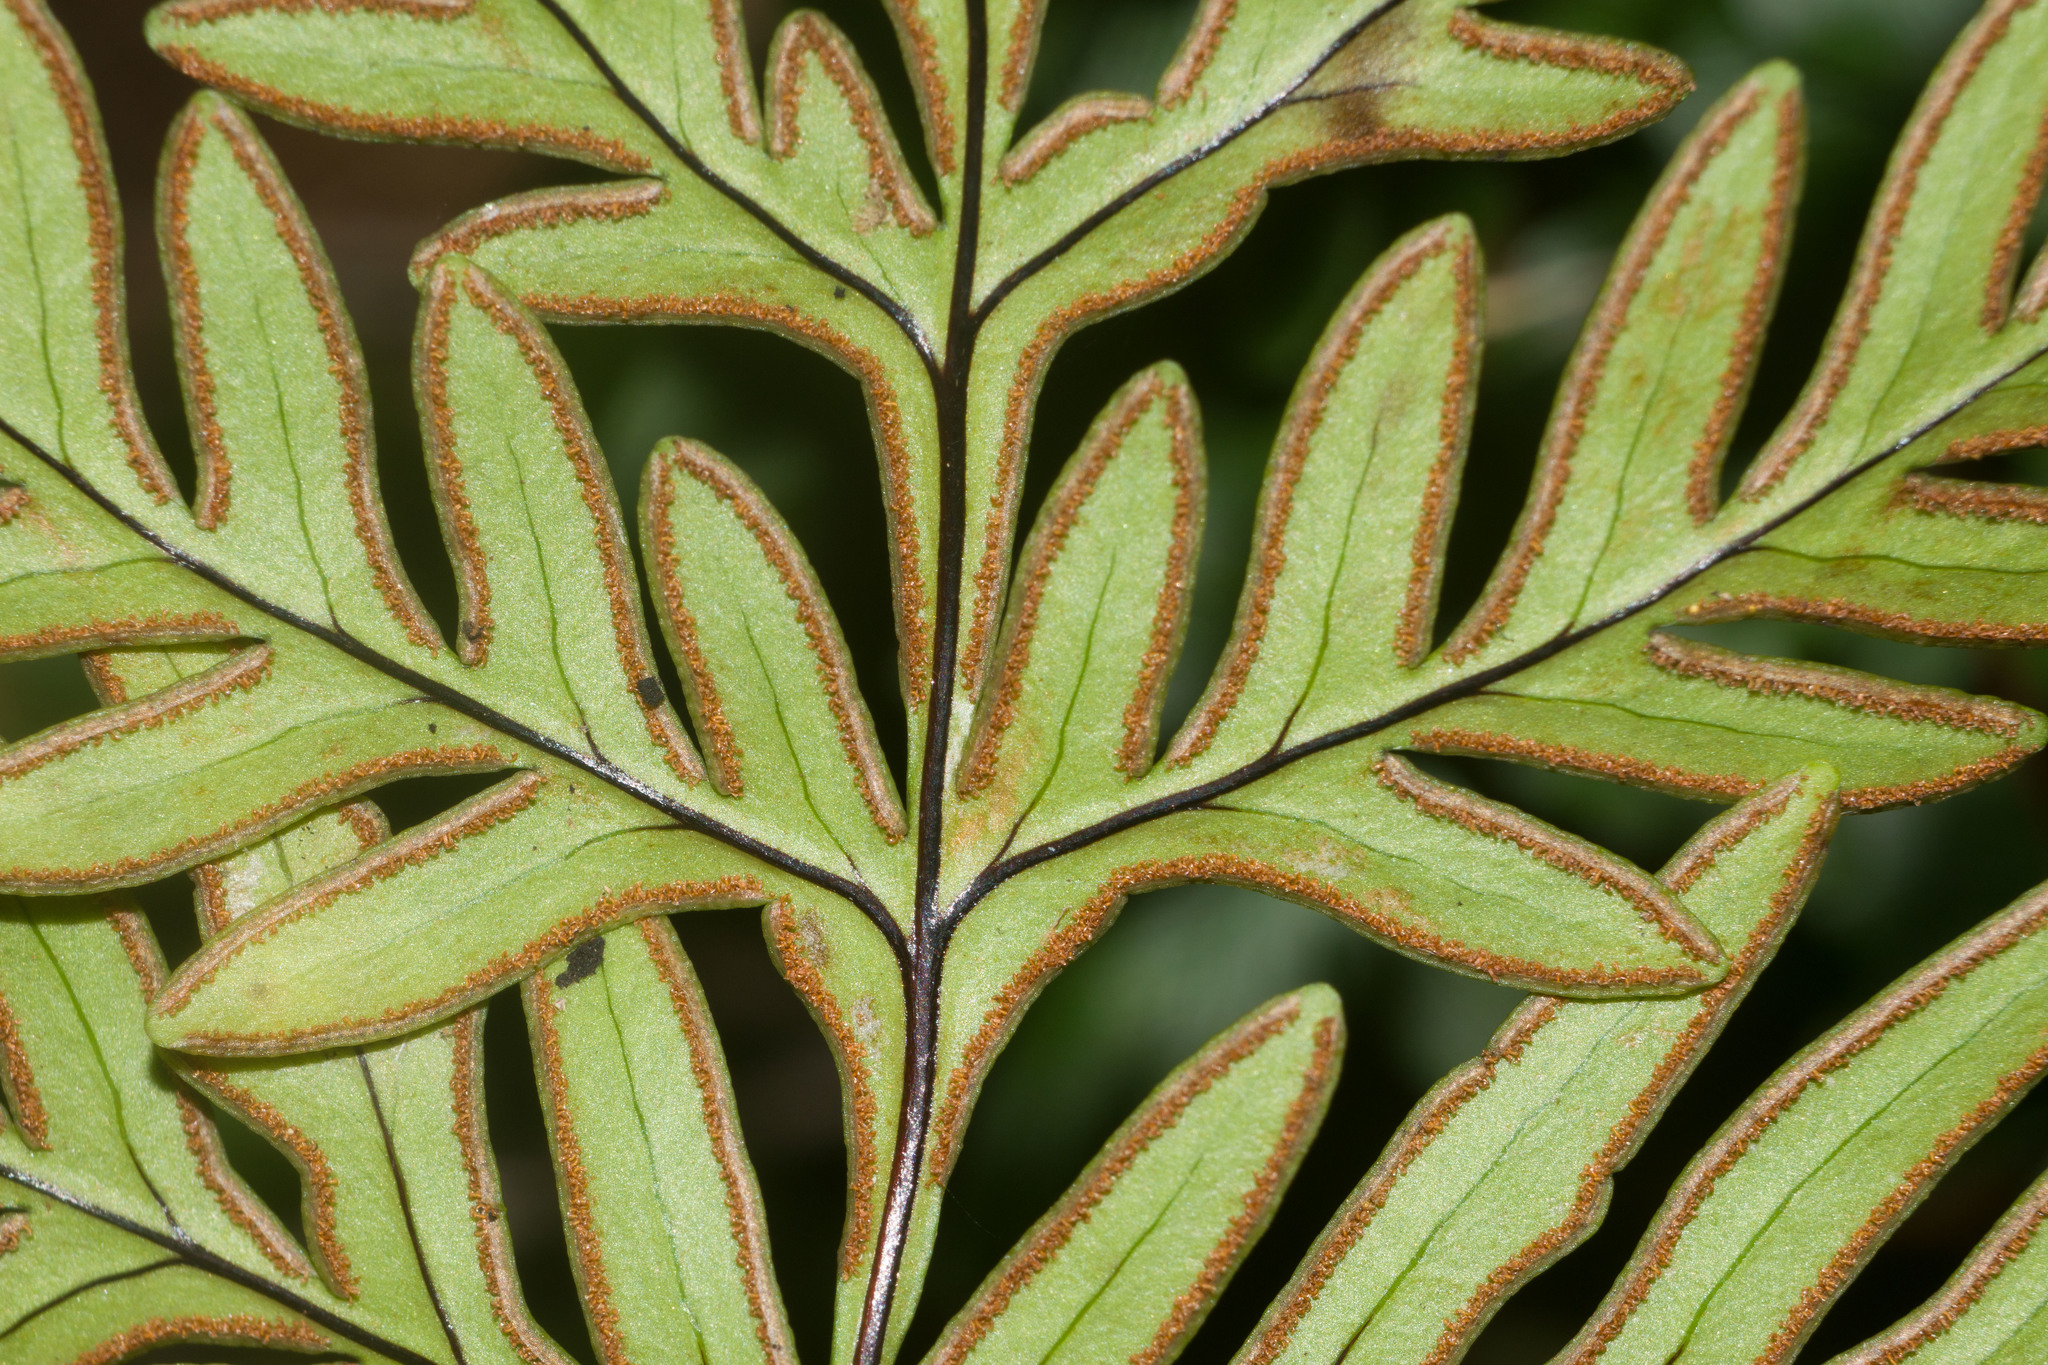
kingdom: Plantae
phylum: Tracheophyta
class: Polypodiopsida
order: Polypodiales
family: Pteridaceae
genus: Doryopteris
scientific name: Doryopteris decipiens
